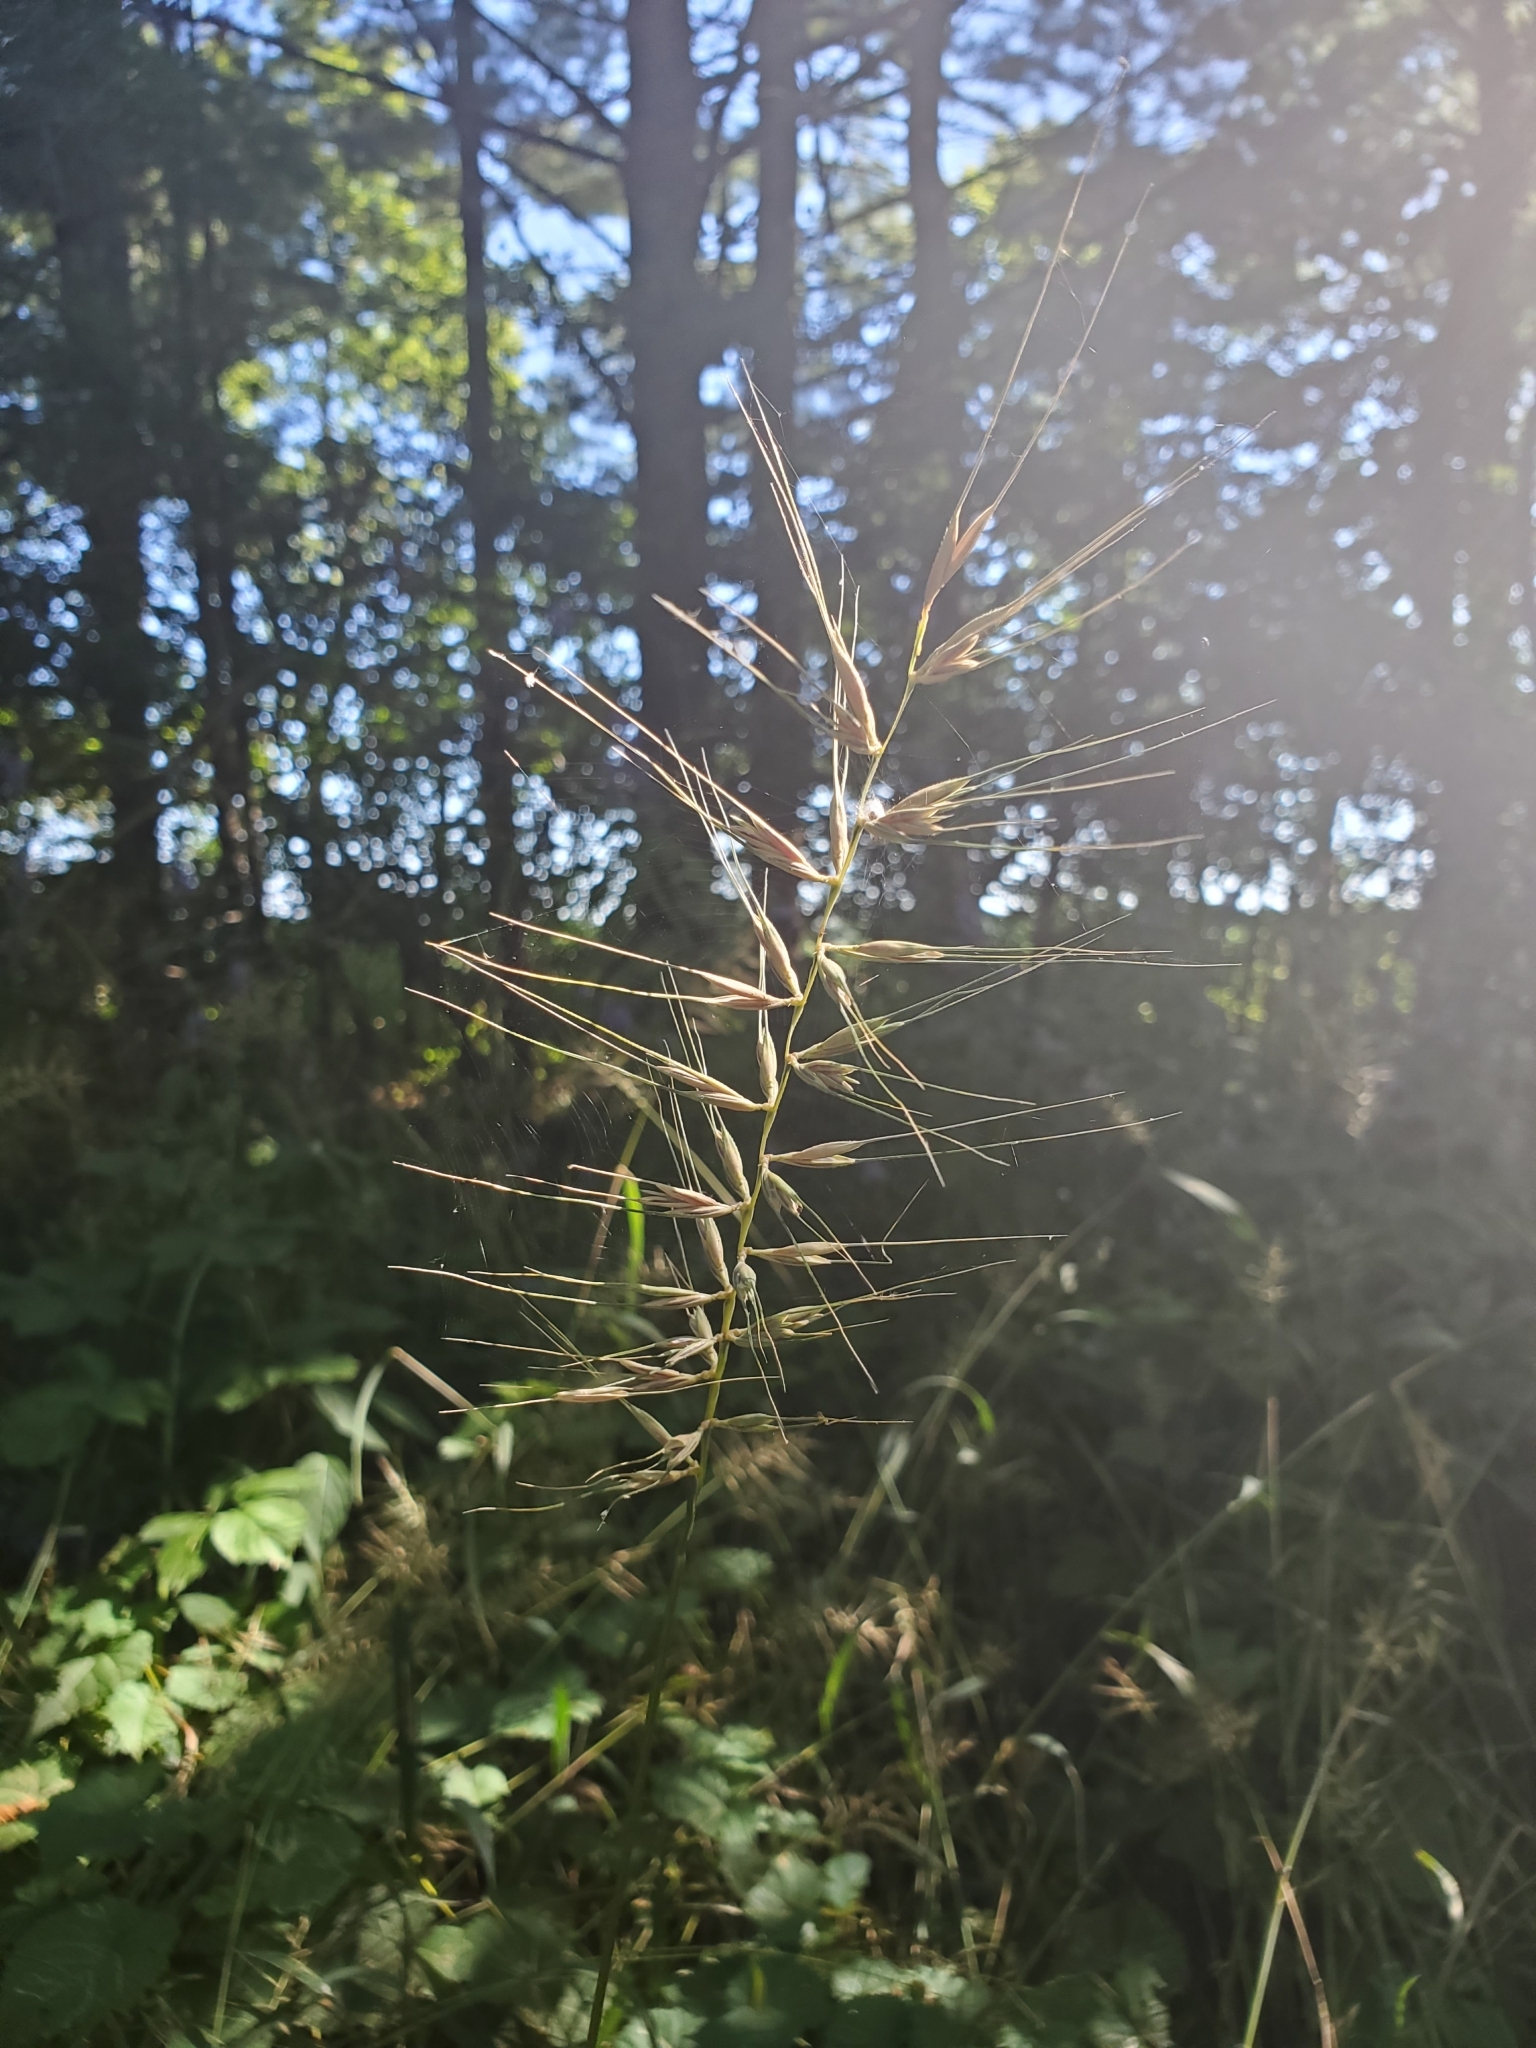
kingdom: Plantae
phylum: Tracheophyta
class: Liliopsida
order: Poales
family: Poaceae
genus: Elymus
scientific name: Elymus hystrix
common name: Bottlebrush grass
